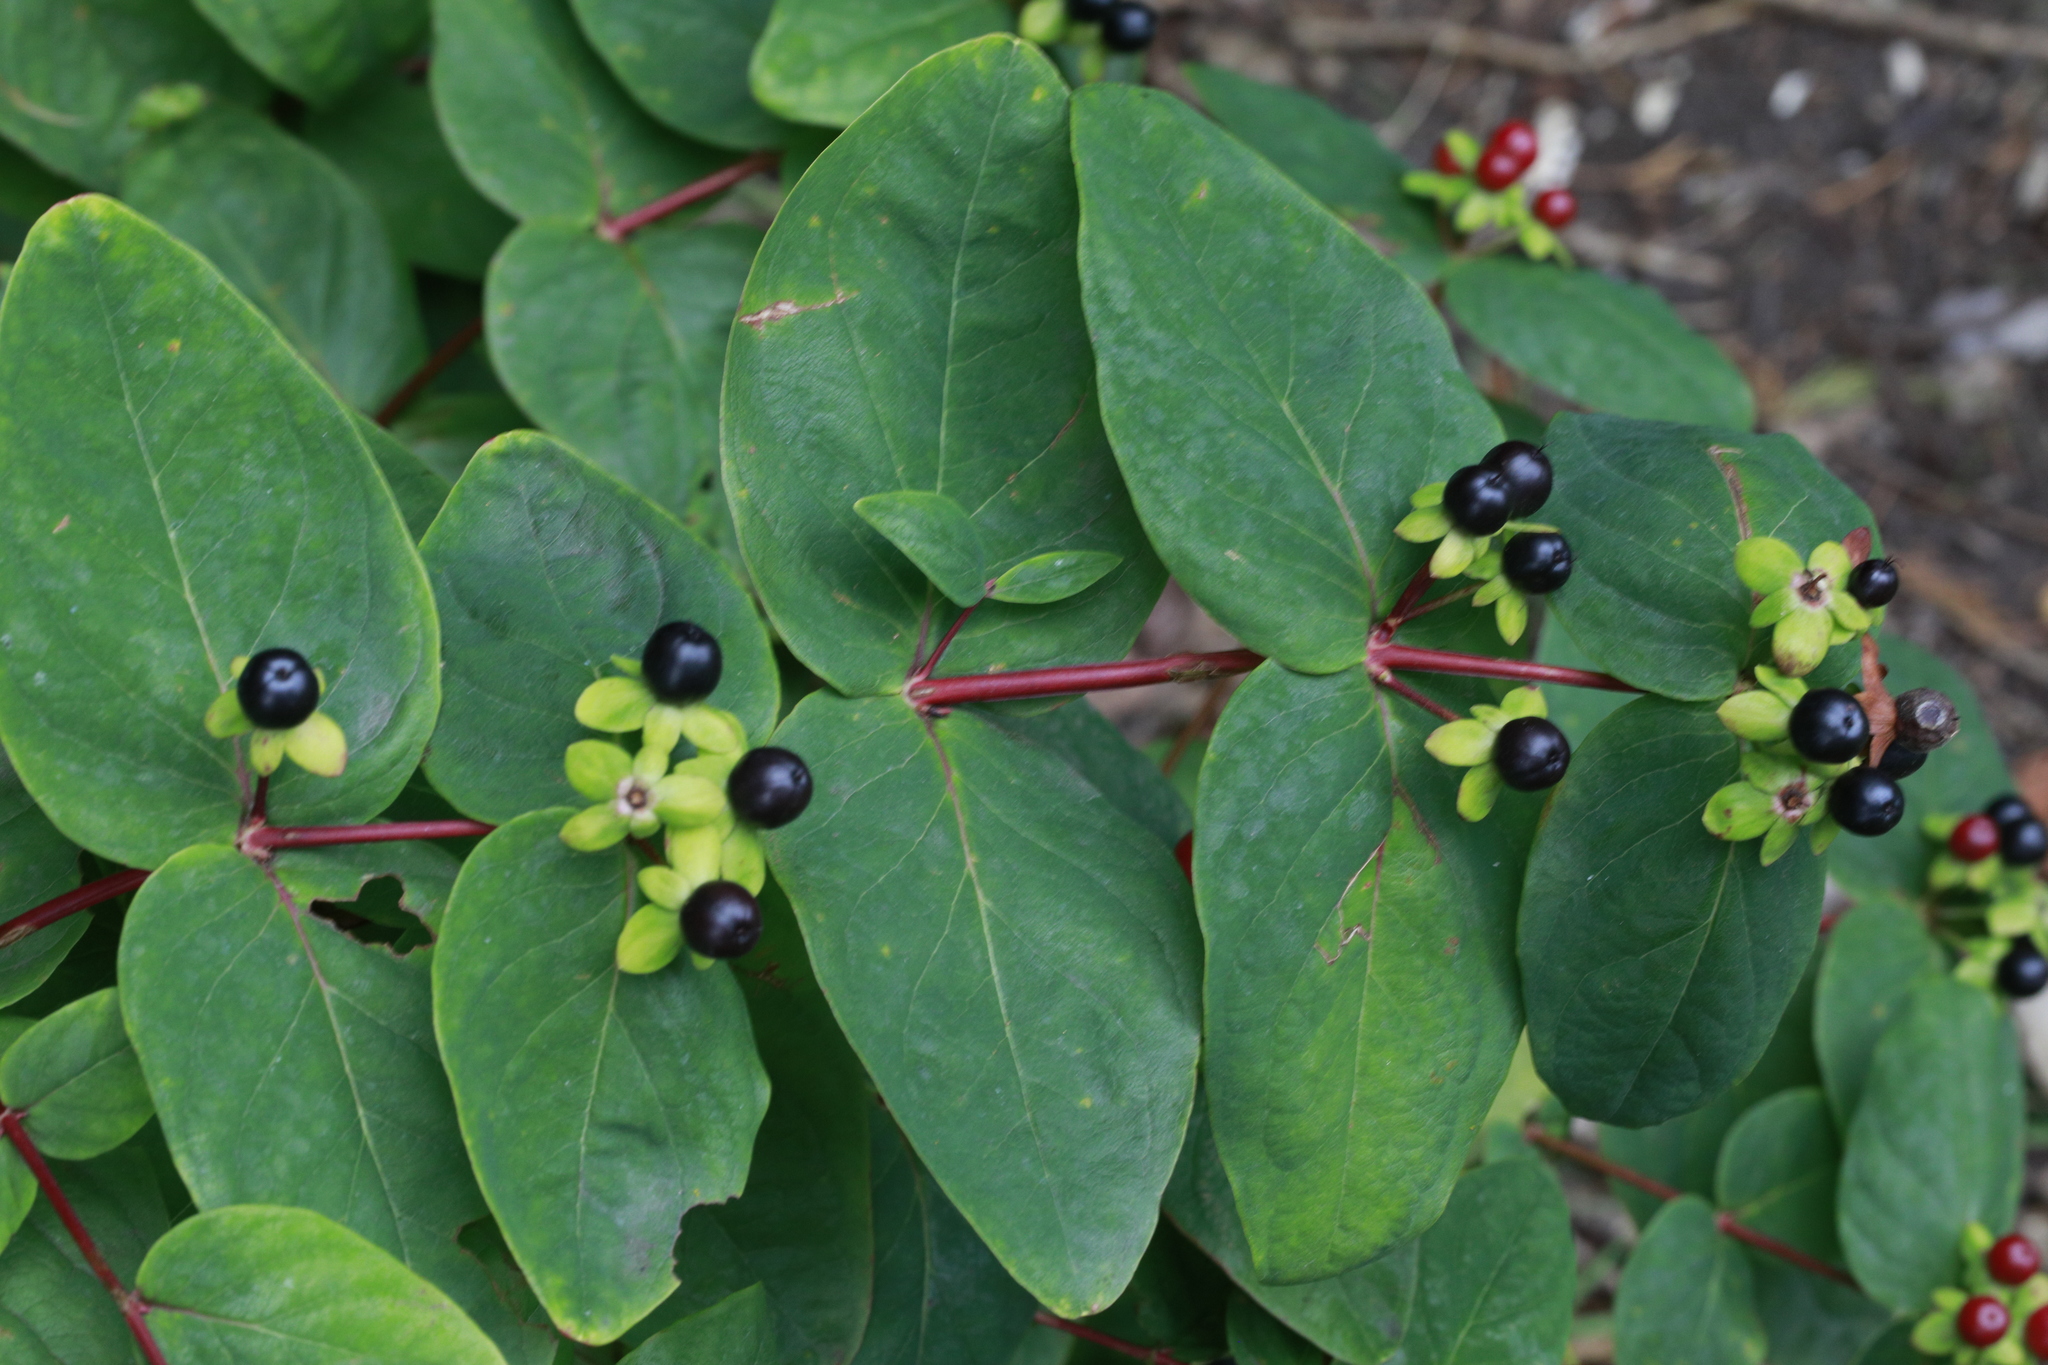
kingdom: Plantae
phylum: Tracheophyta
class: Magnoliopsida
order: Malpighiales
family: Hypericaceae
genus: Hypericum
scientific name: Hypericum androsaemum
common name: Sweet-amber
